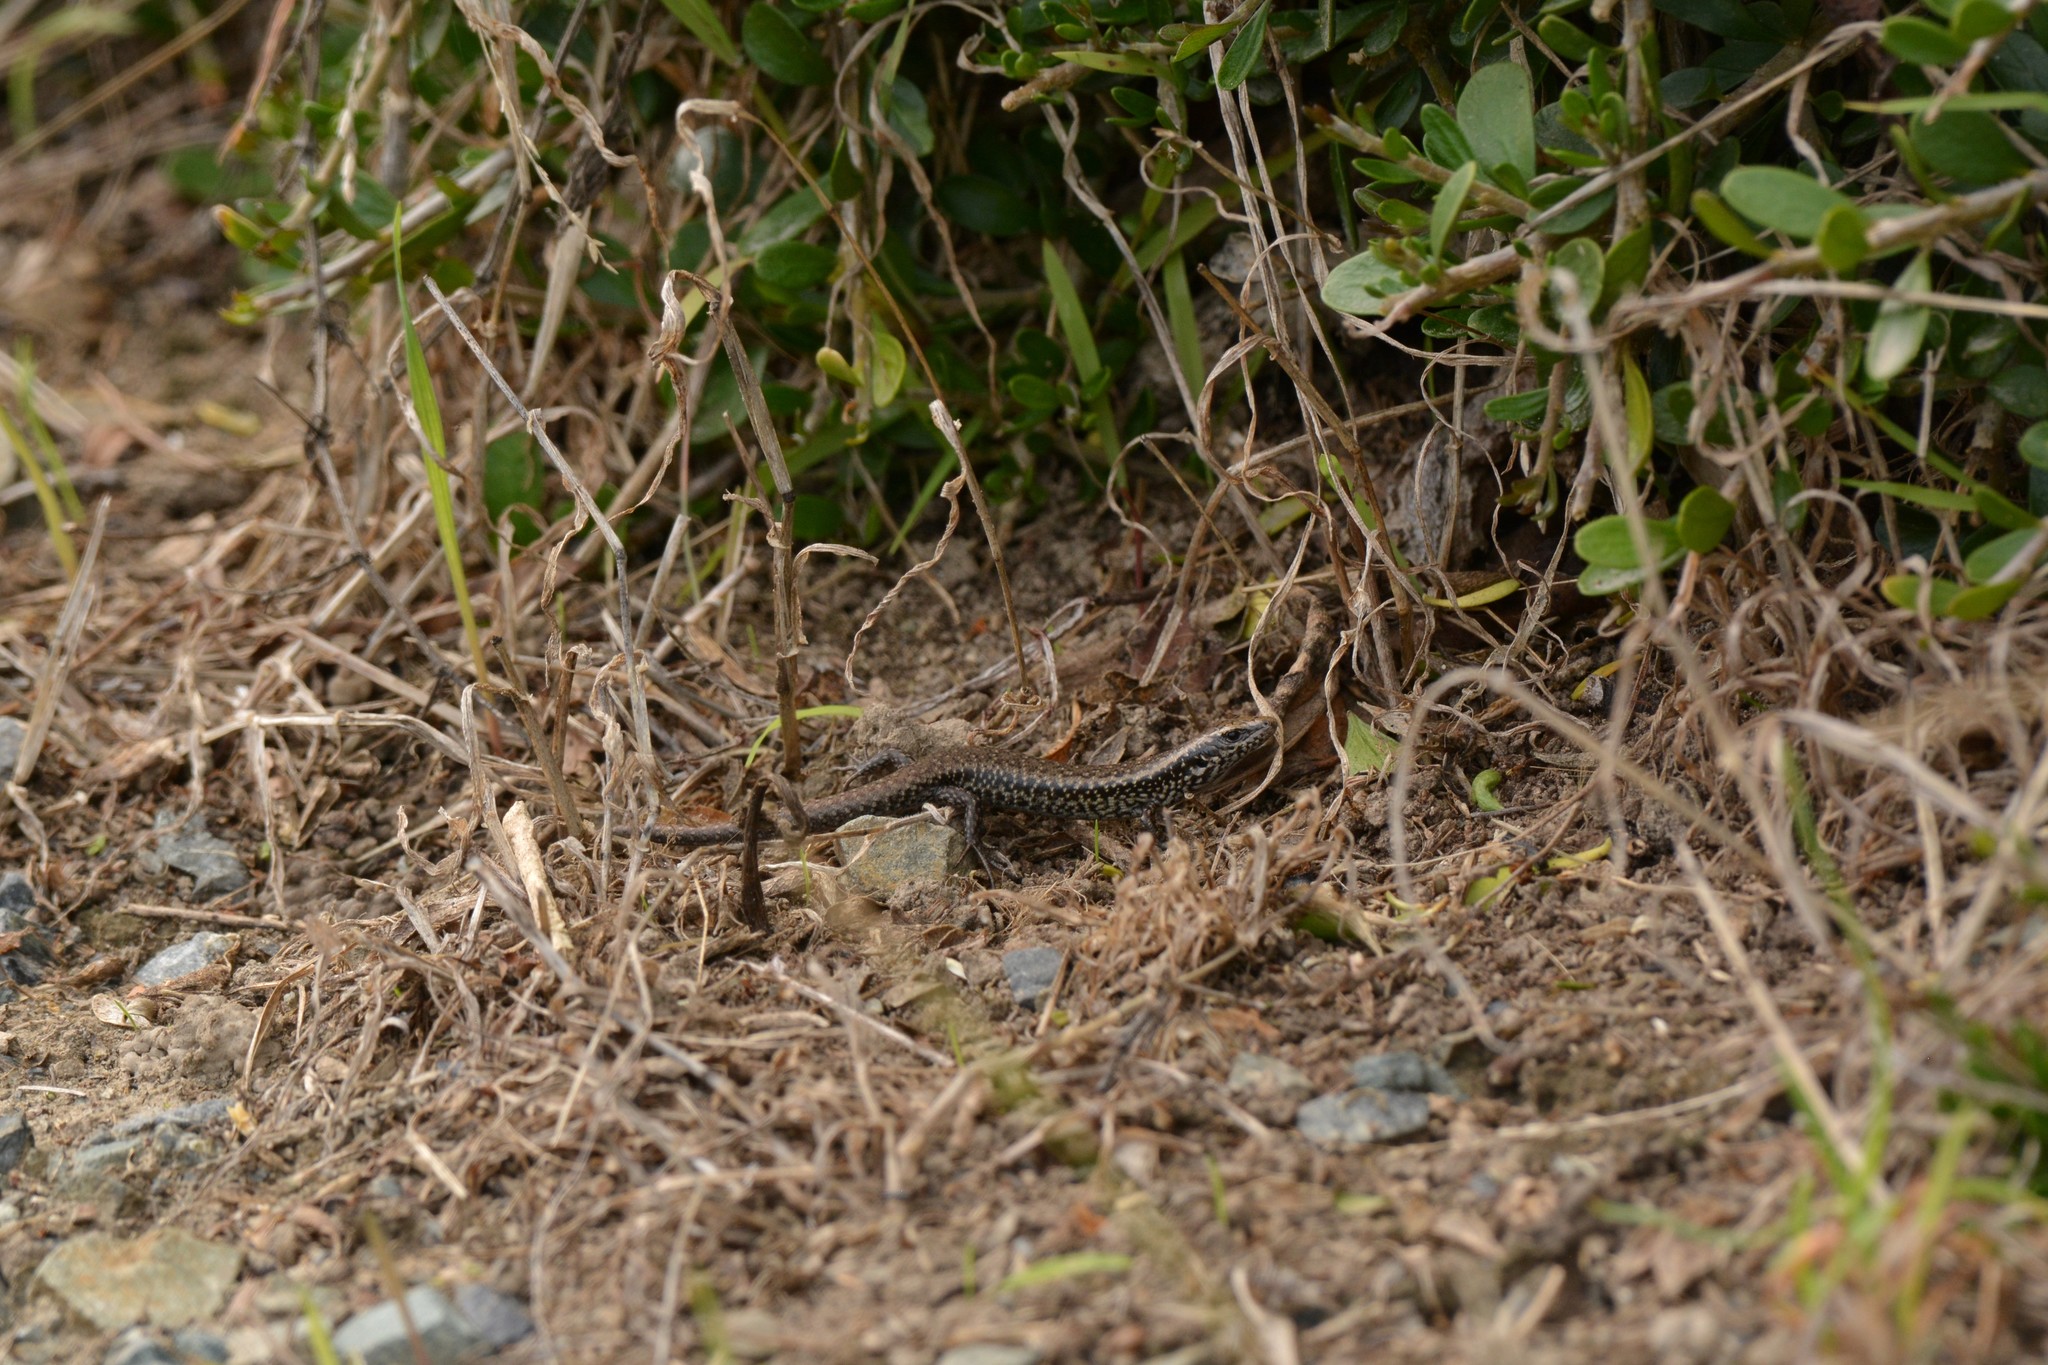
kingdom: Animalia
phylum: Chordata
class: Squamata
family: Scincidae
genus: Oligosoma
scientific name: Oligosoma kokowai
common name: Northern spotted skink
